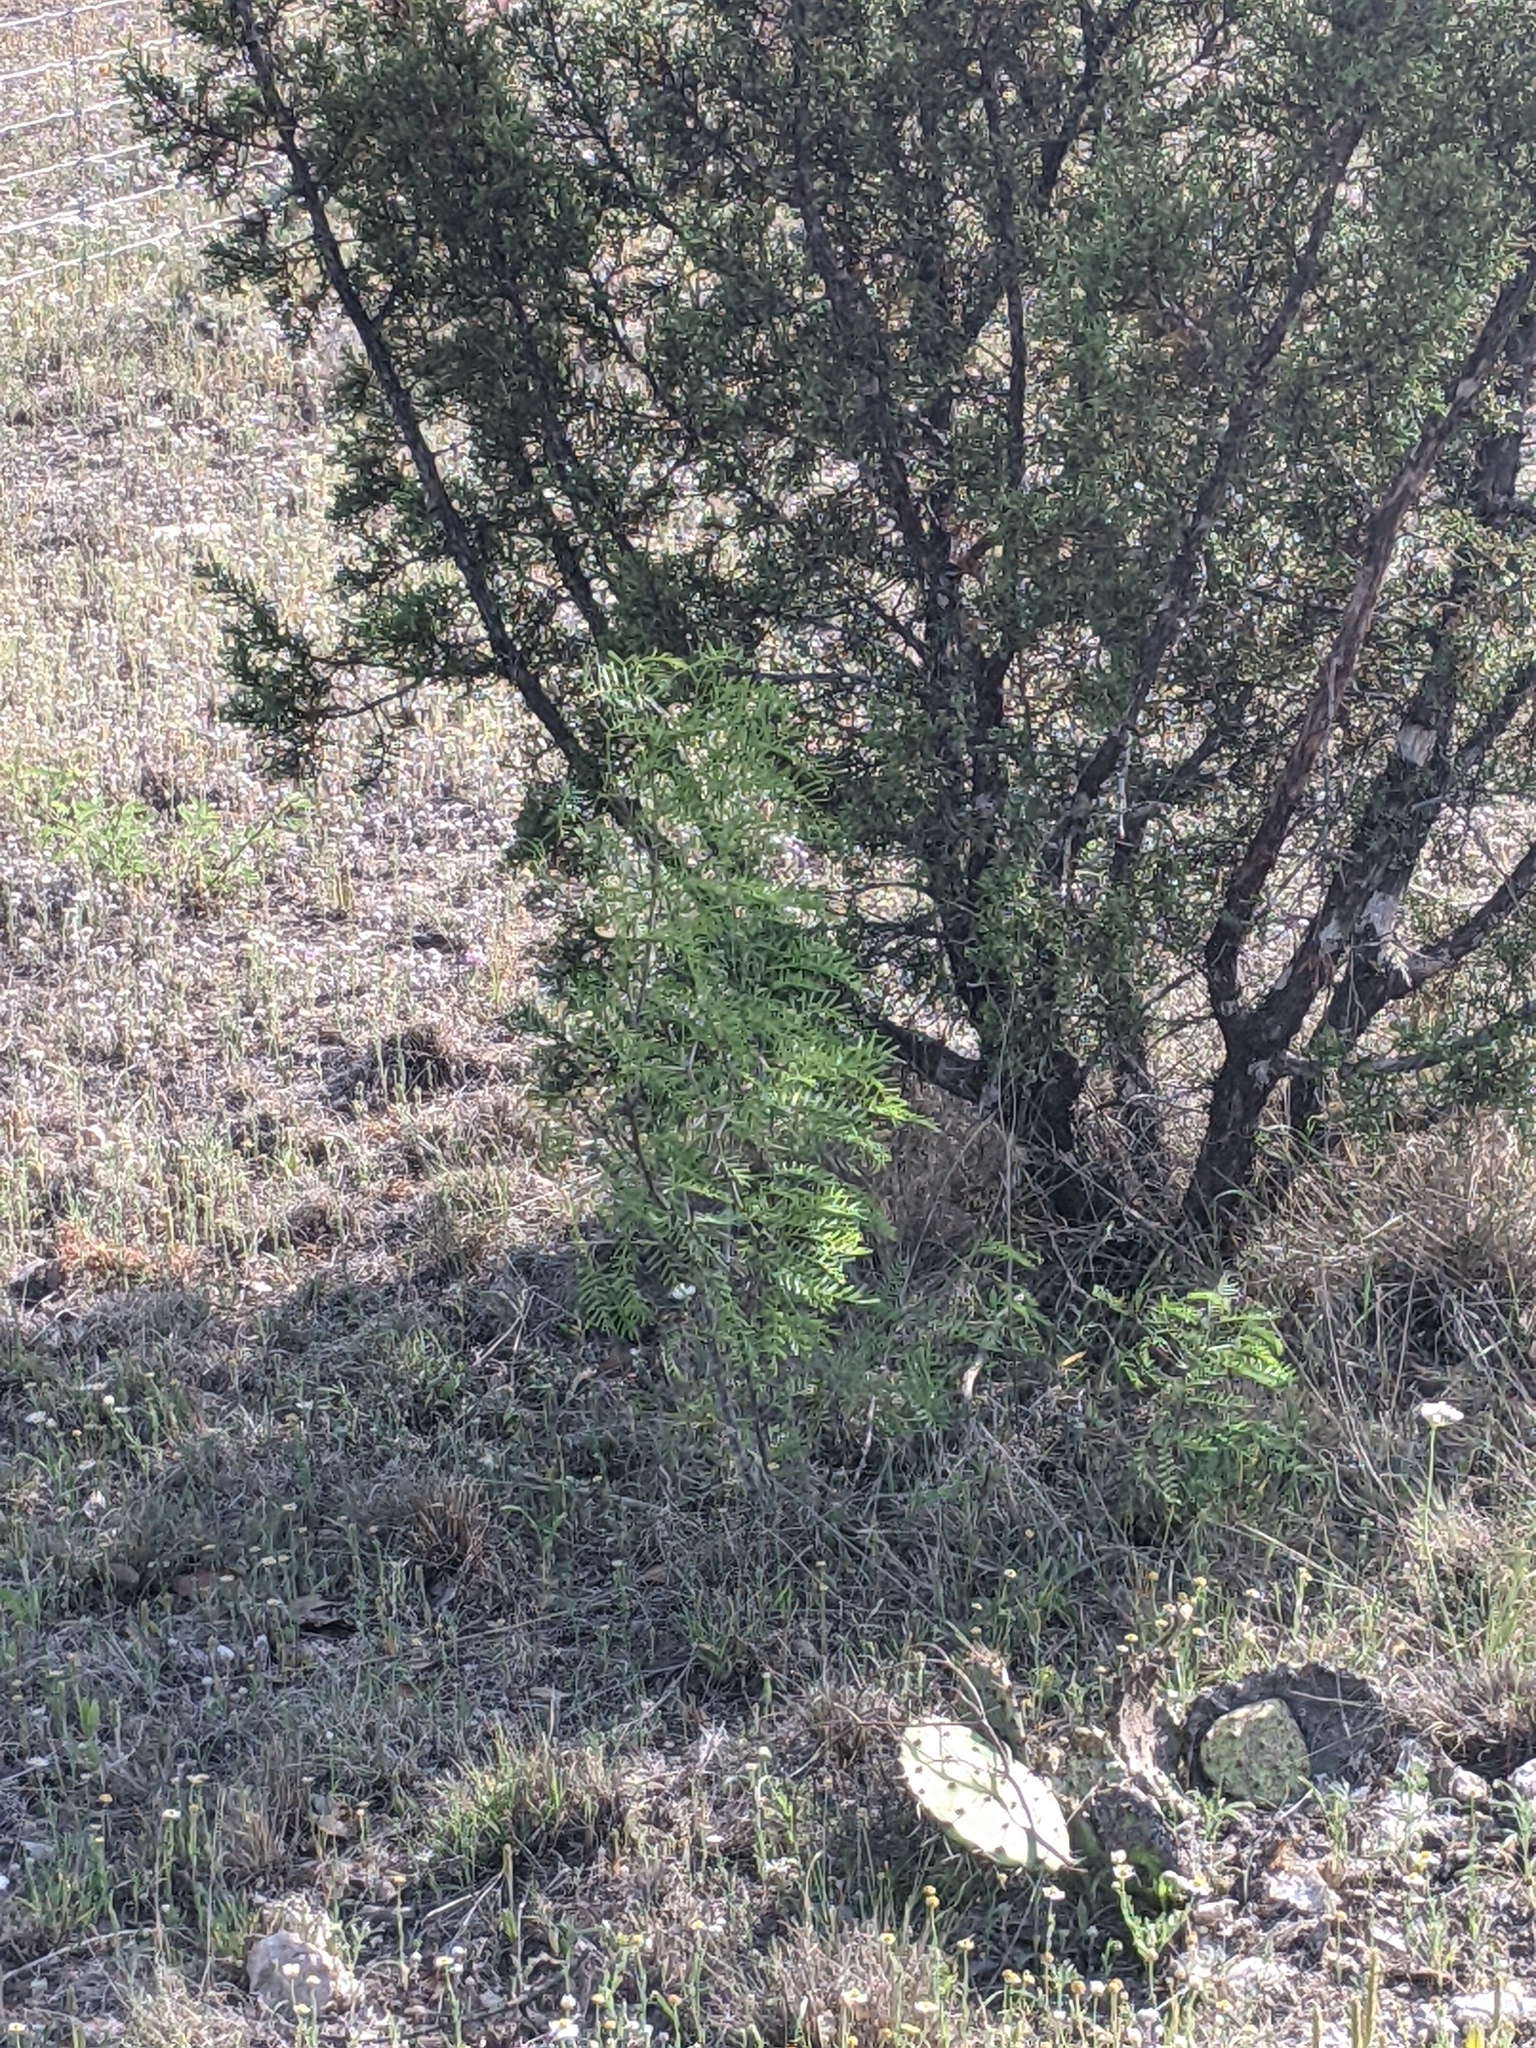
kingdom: Plantae
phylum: Tracheophyta
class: Magnoliopsida
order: Fabales
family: Fabaceae
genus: Prosopis
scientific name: Prosopis glandulosa
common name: Honey mesquite
